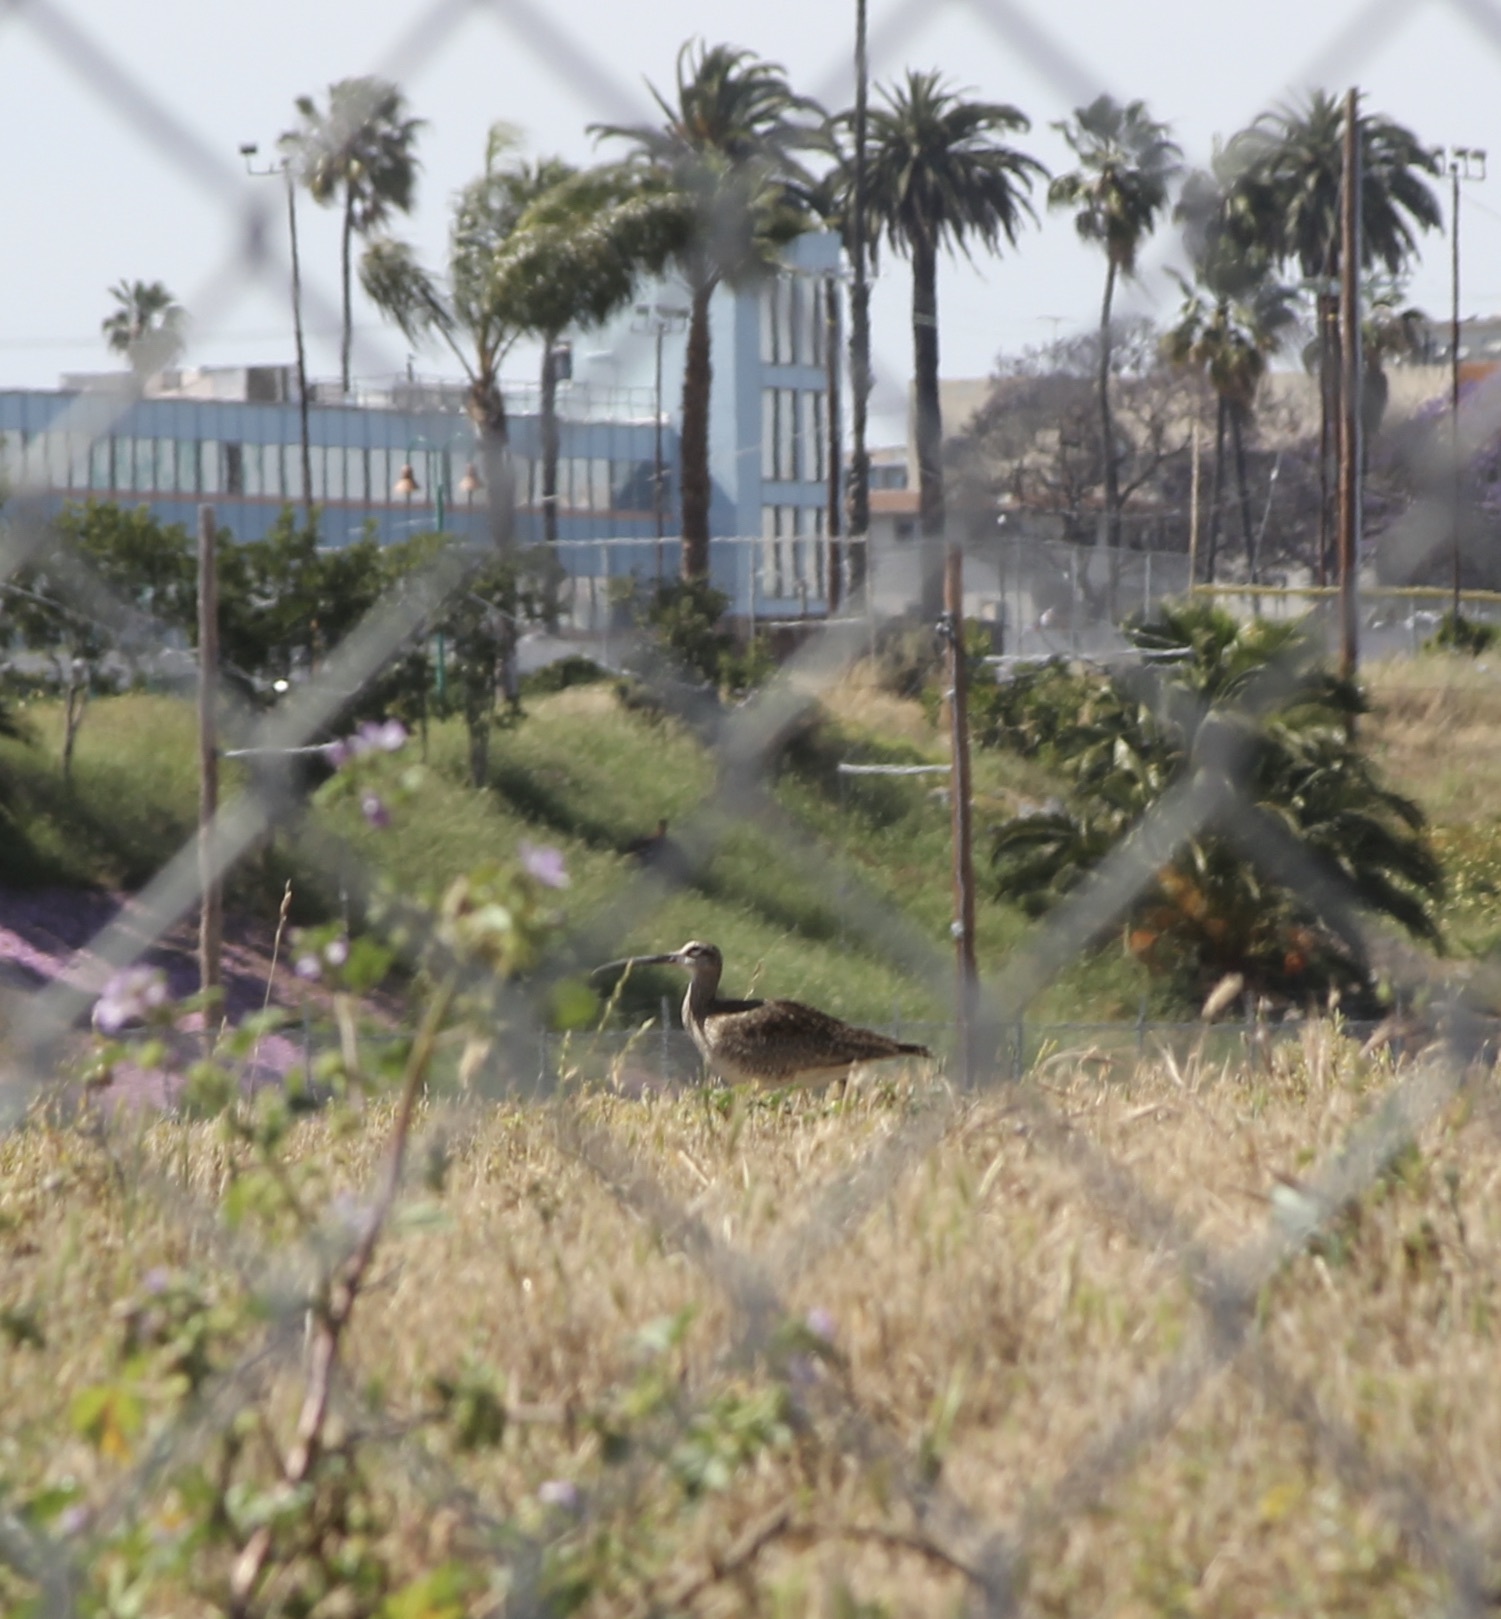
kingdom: Animalia
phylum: Chordata
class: Aves
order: Charadriiformes
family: Scolopacidae
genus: Numenius
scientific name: Numenius phaeopus
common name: Whimbrel
